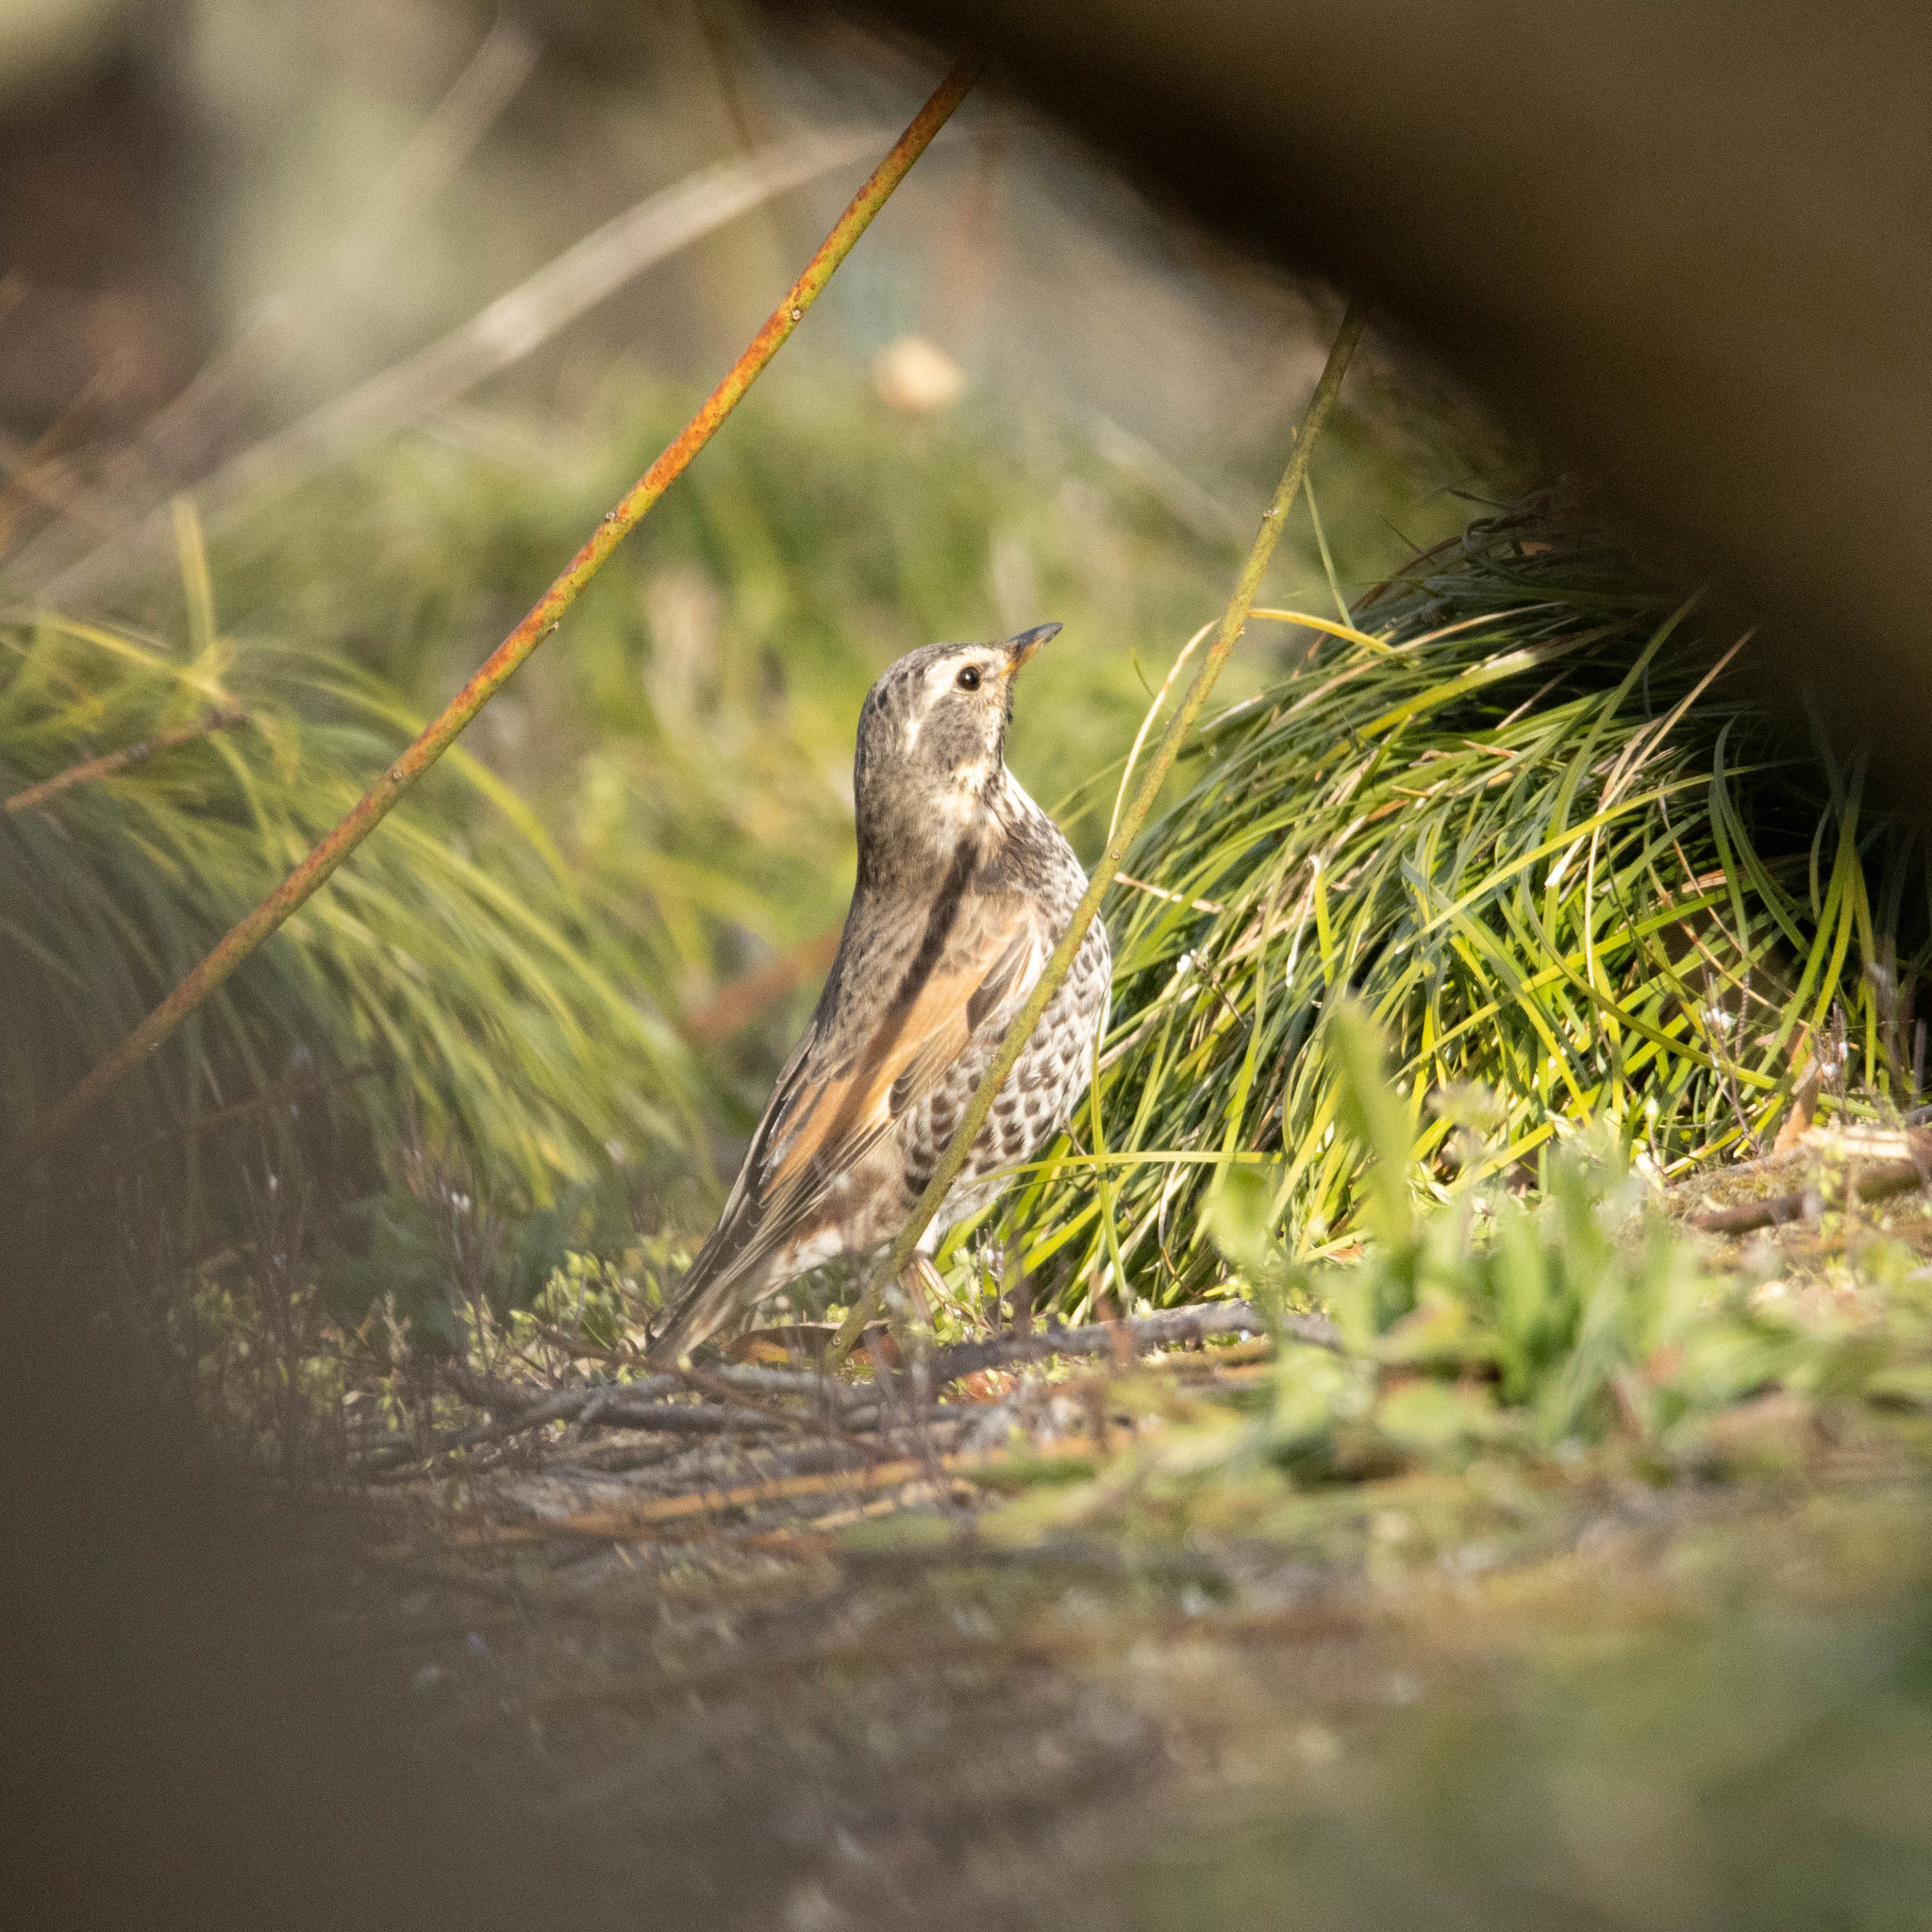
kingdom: Animalia
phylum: Chordata
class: Aves
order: Passeriformes
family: Turdidae
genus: Turdus
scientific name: Turdus eunomus
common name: Dusky thrush
